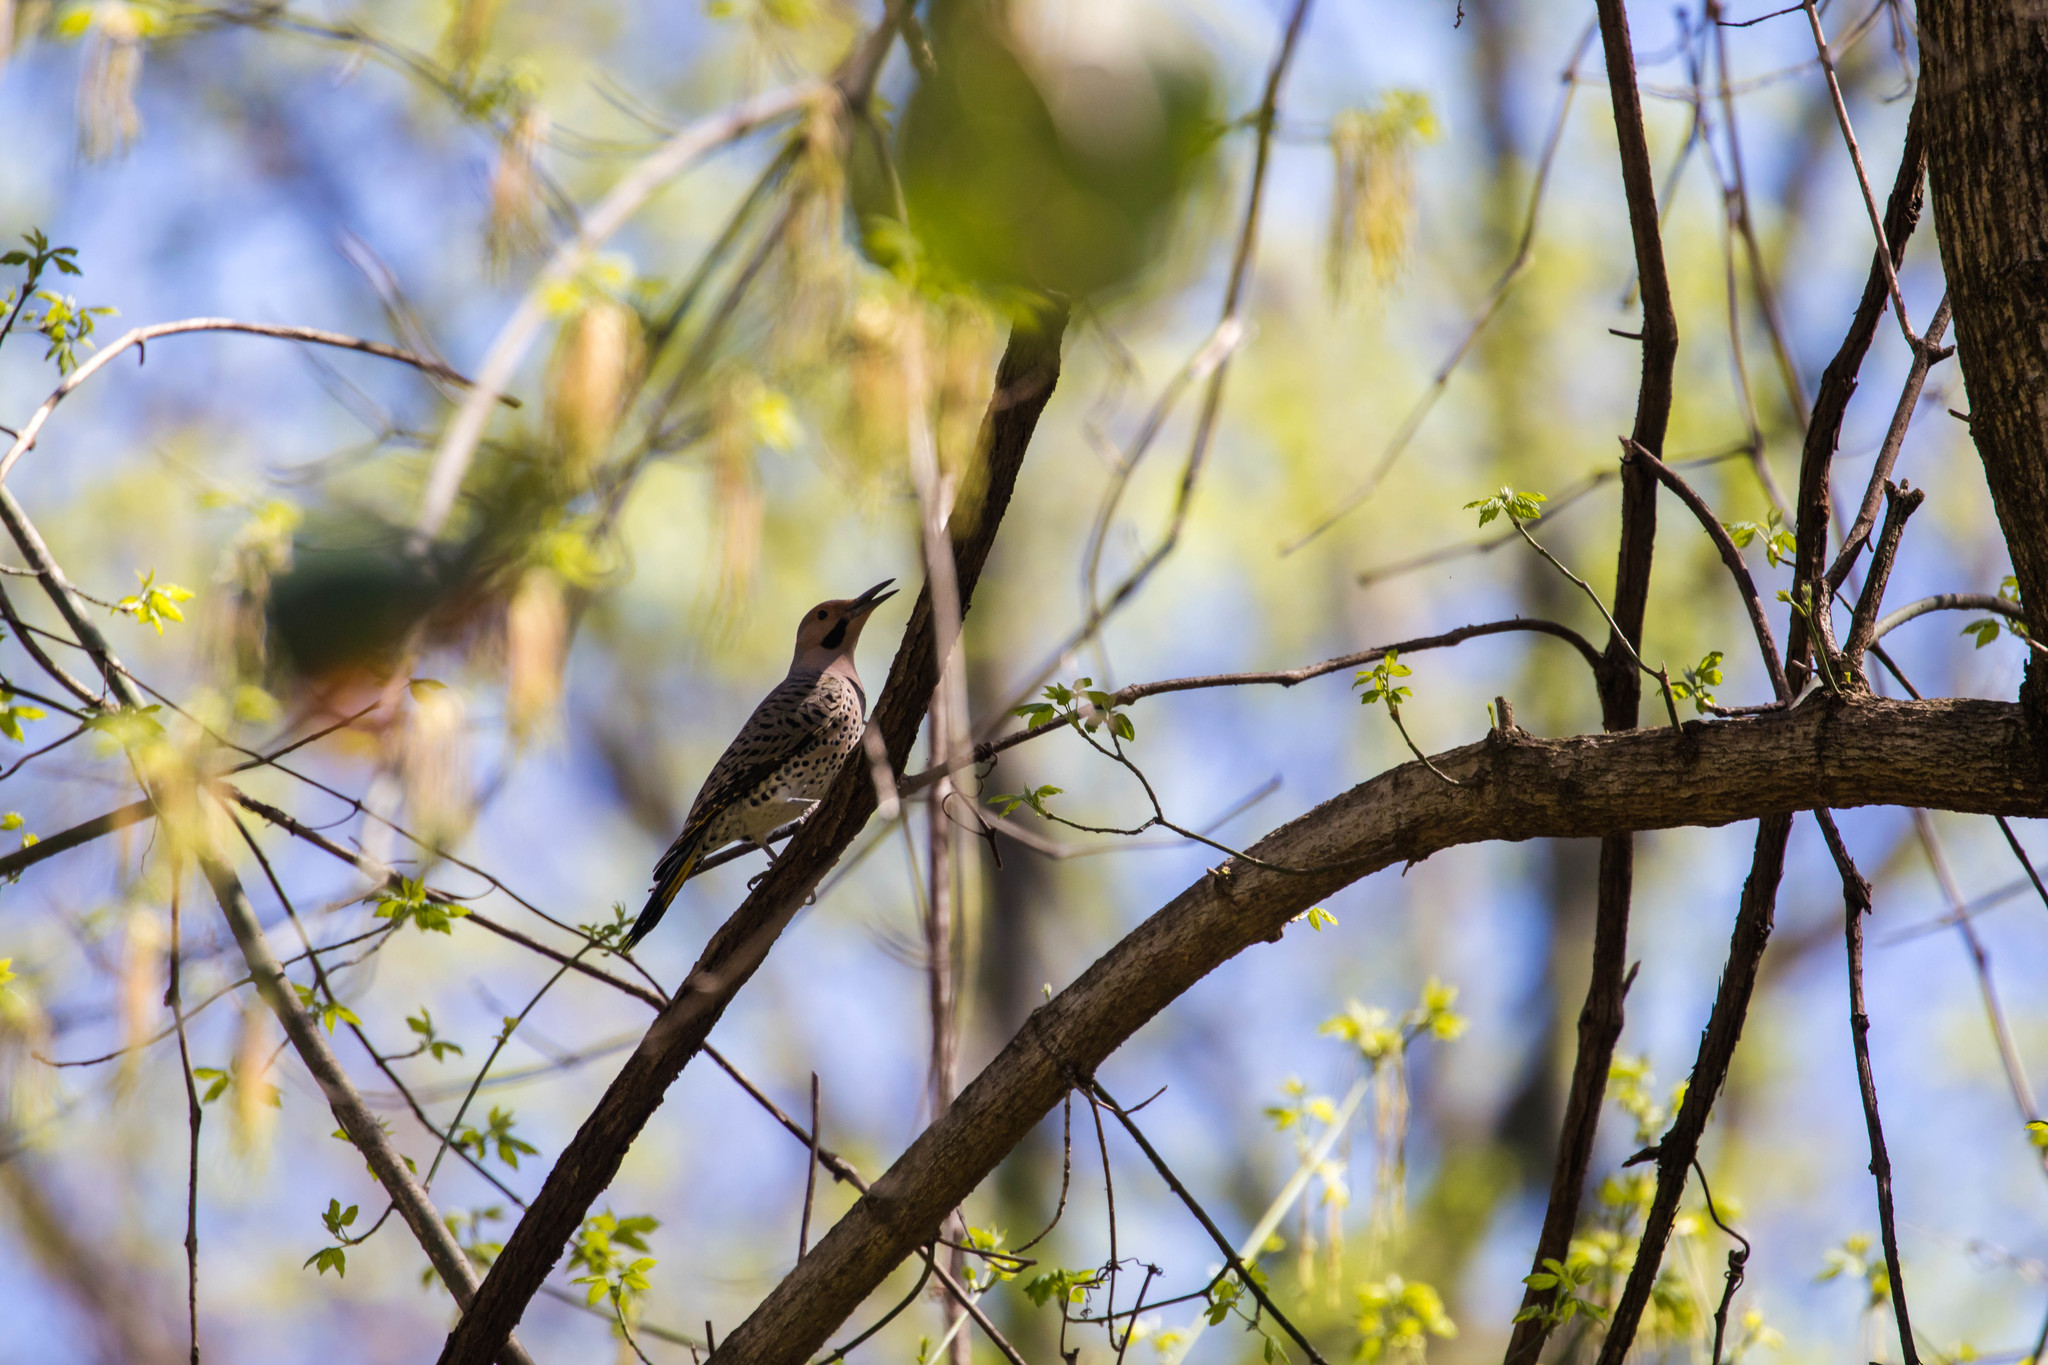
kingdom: Animalia
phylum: Chordata
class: Aves
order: Piciformes
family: Picidae
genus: Colaptes
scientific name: Colaptes auratus
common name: Northern flicker
